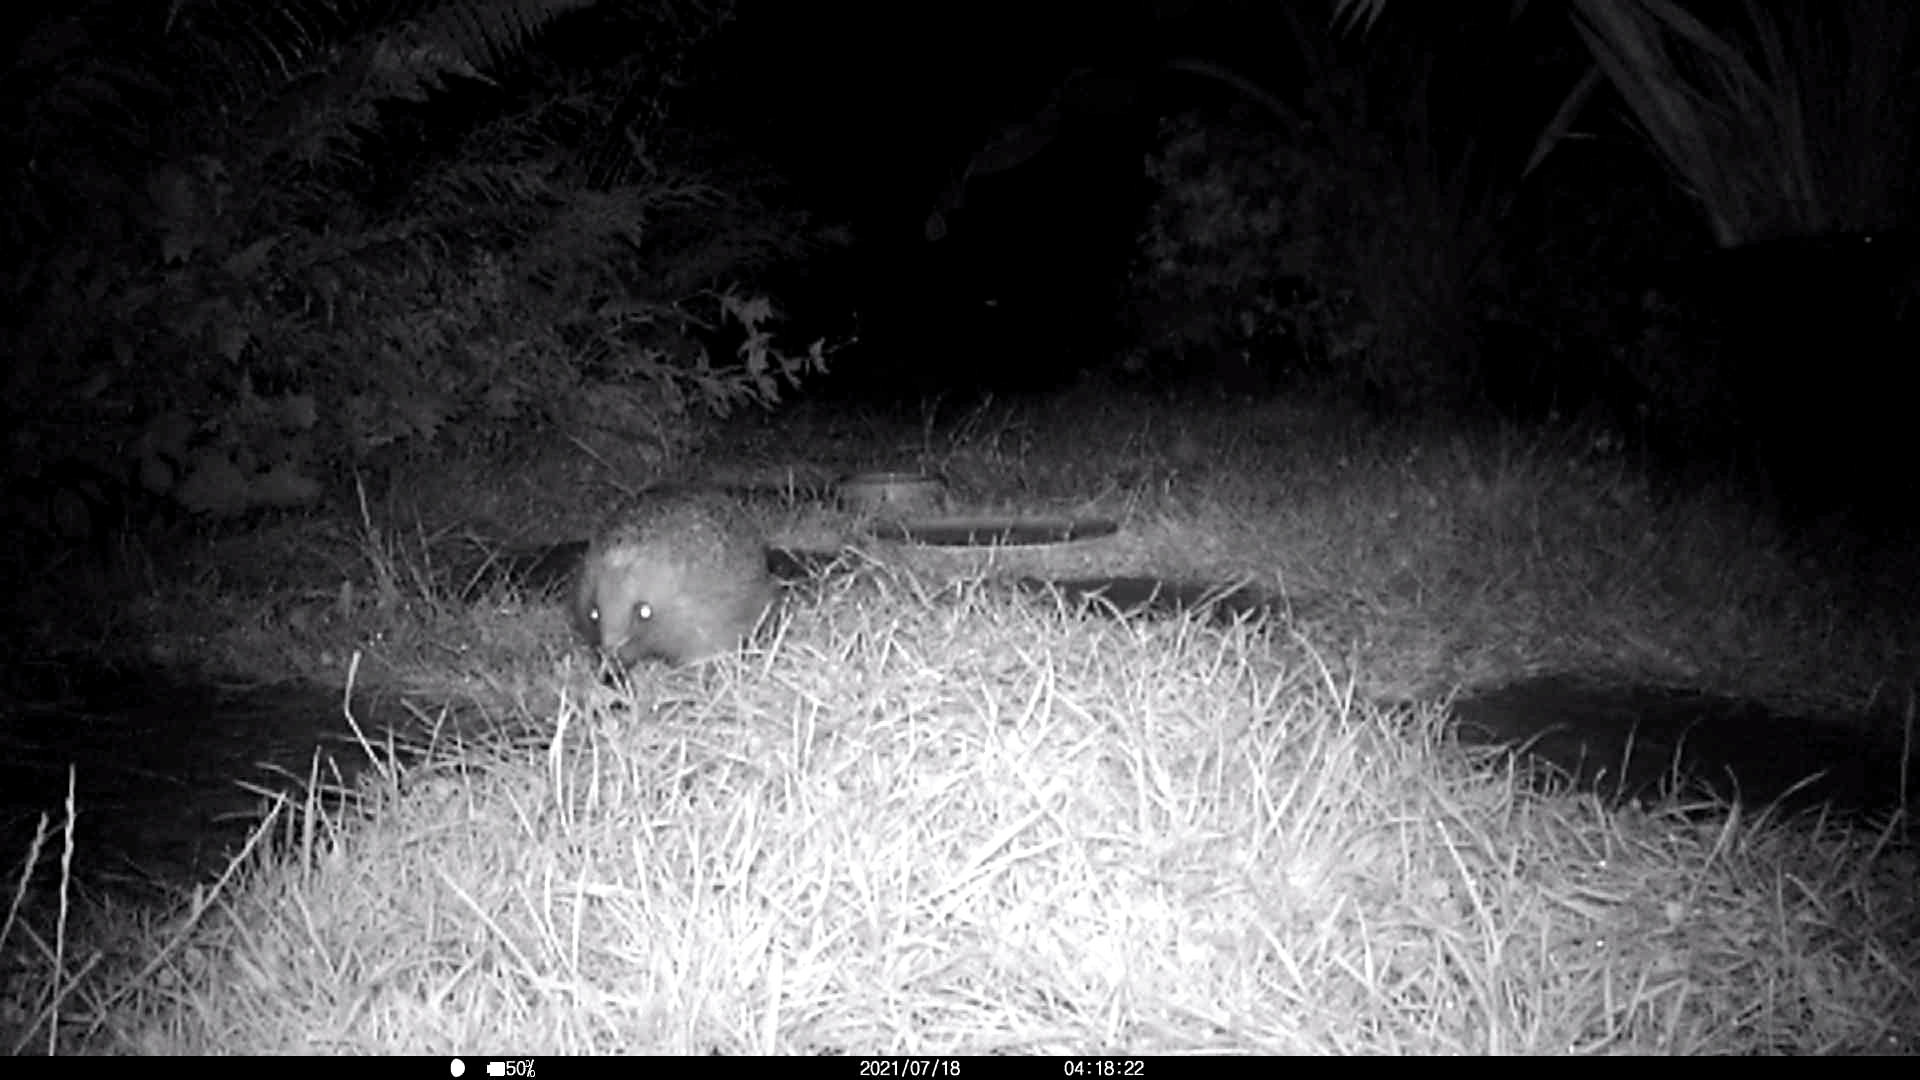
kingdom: Animalia
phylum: Chordata
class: Mammalia
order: Erinaceomorpha
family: Erinaceidae
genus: Erinaceus
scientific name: Erinaceus europaeus
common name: West european hedgehog
